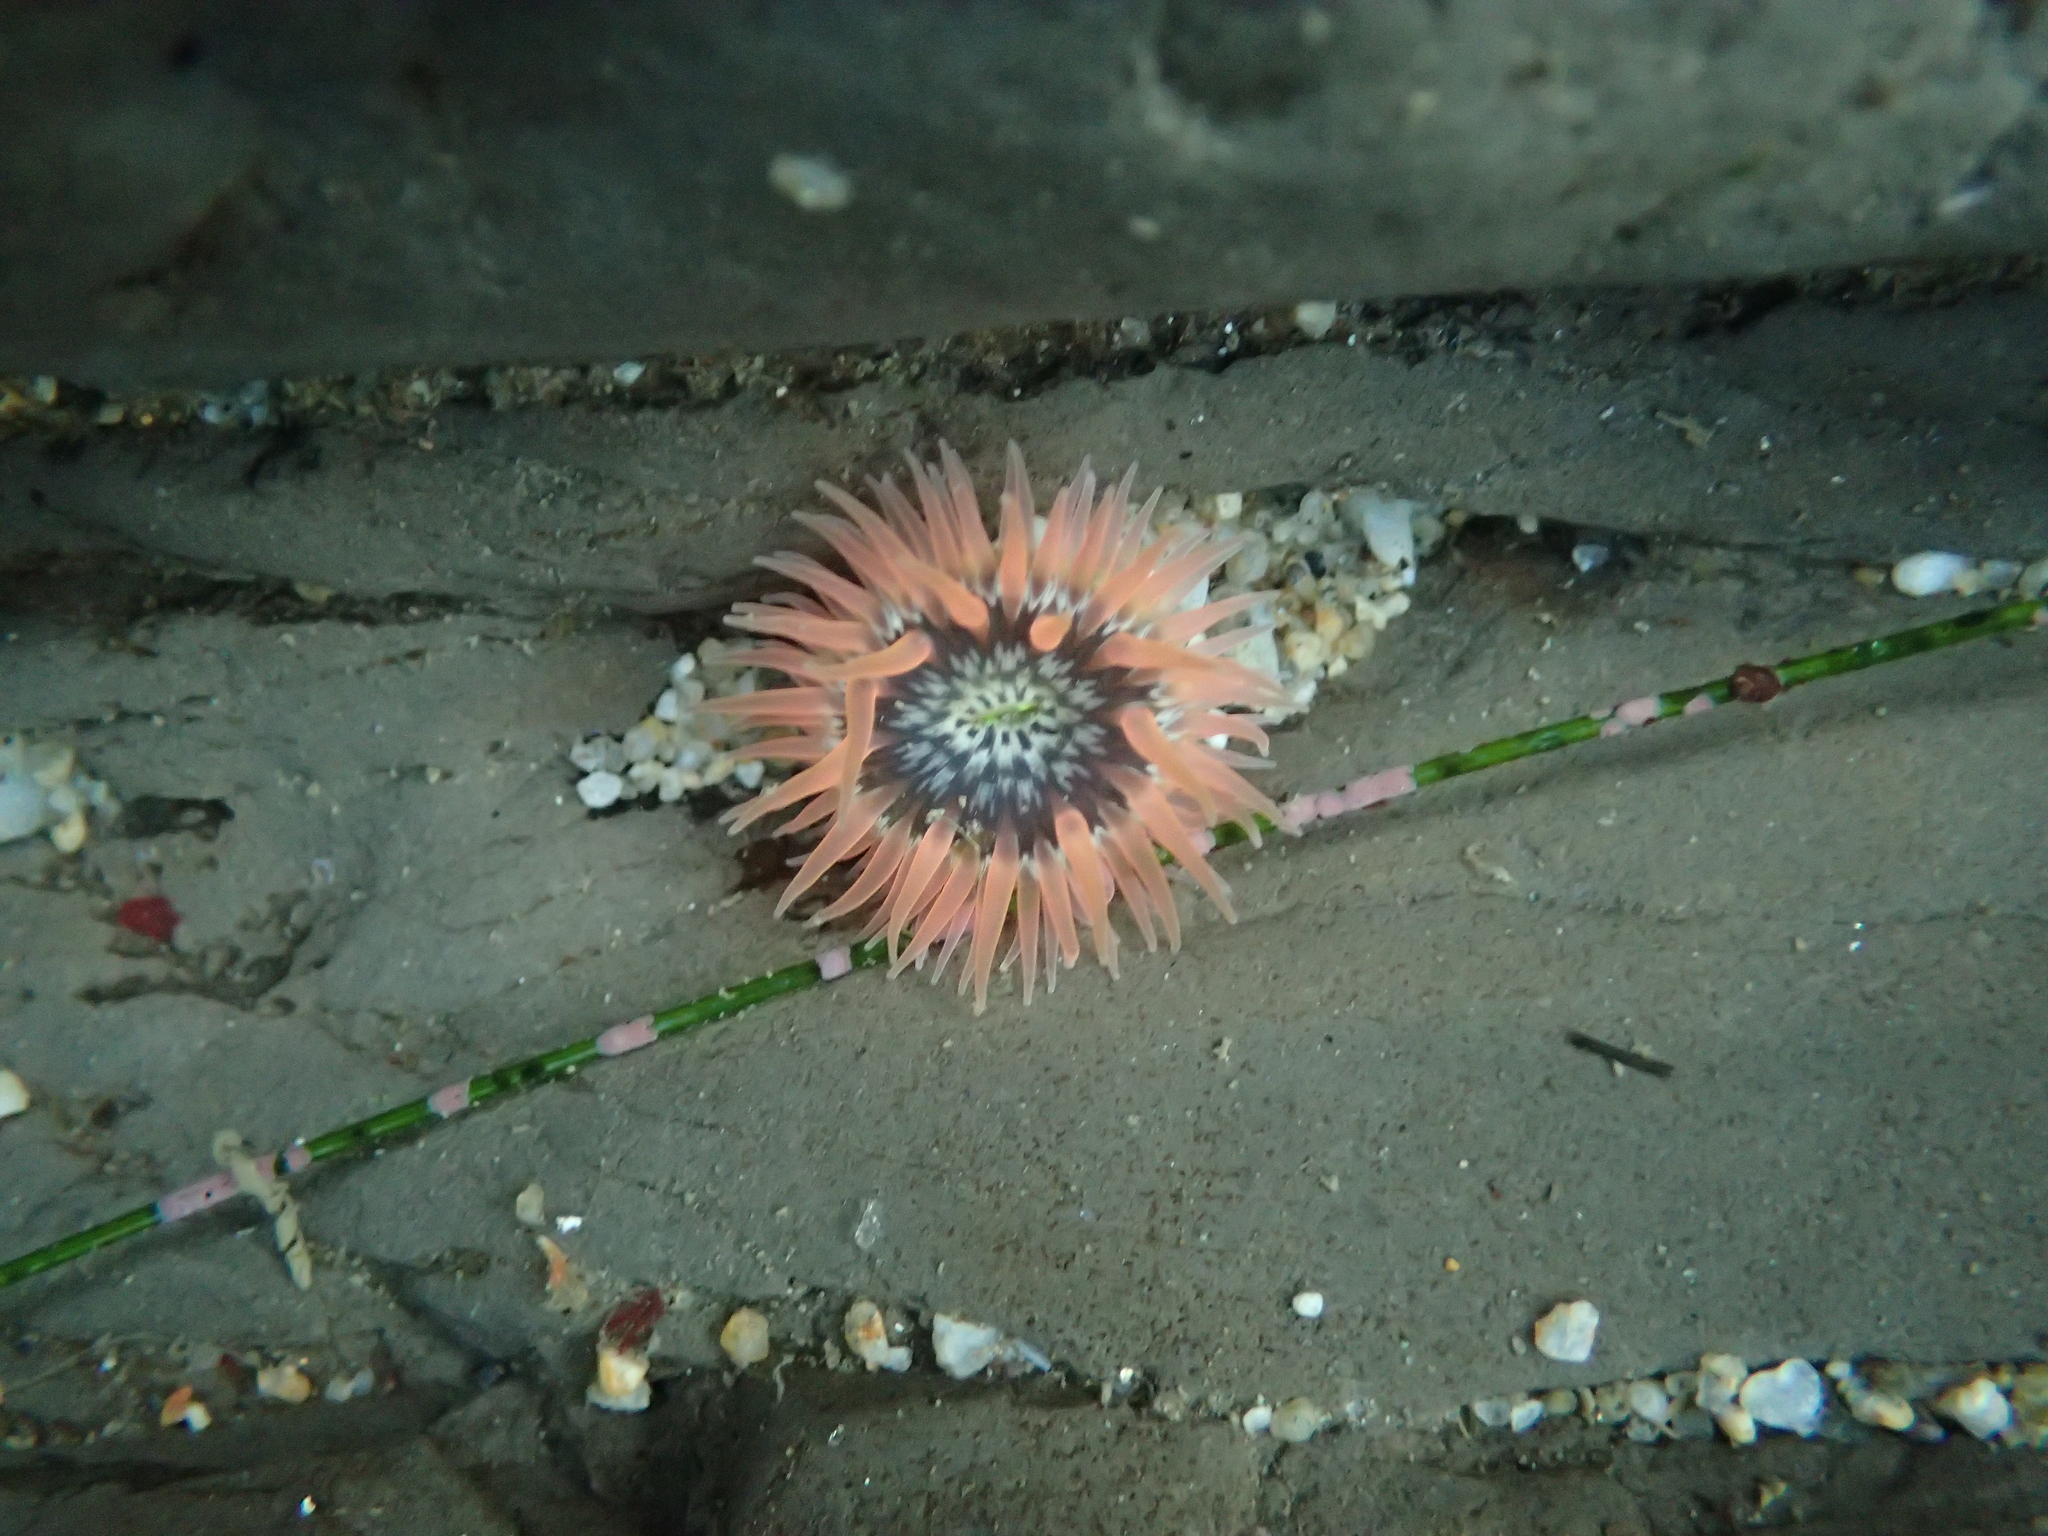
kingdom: Animalia
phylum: Cnidaria
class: Anthozoa
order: Actiniaria
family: Actiniidae
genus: Anthopleura
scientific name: Anthopleura artemisia
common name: Buried sea anemone
